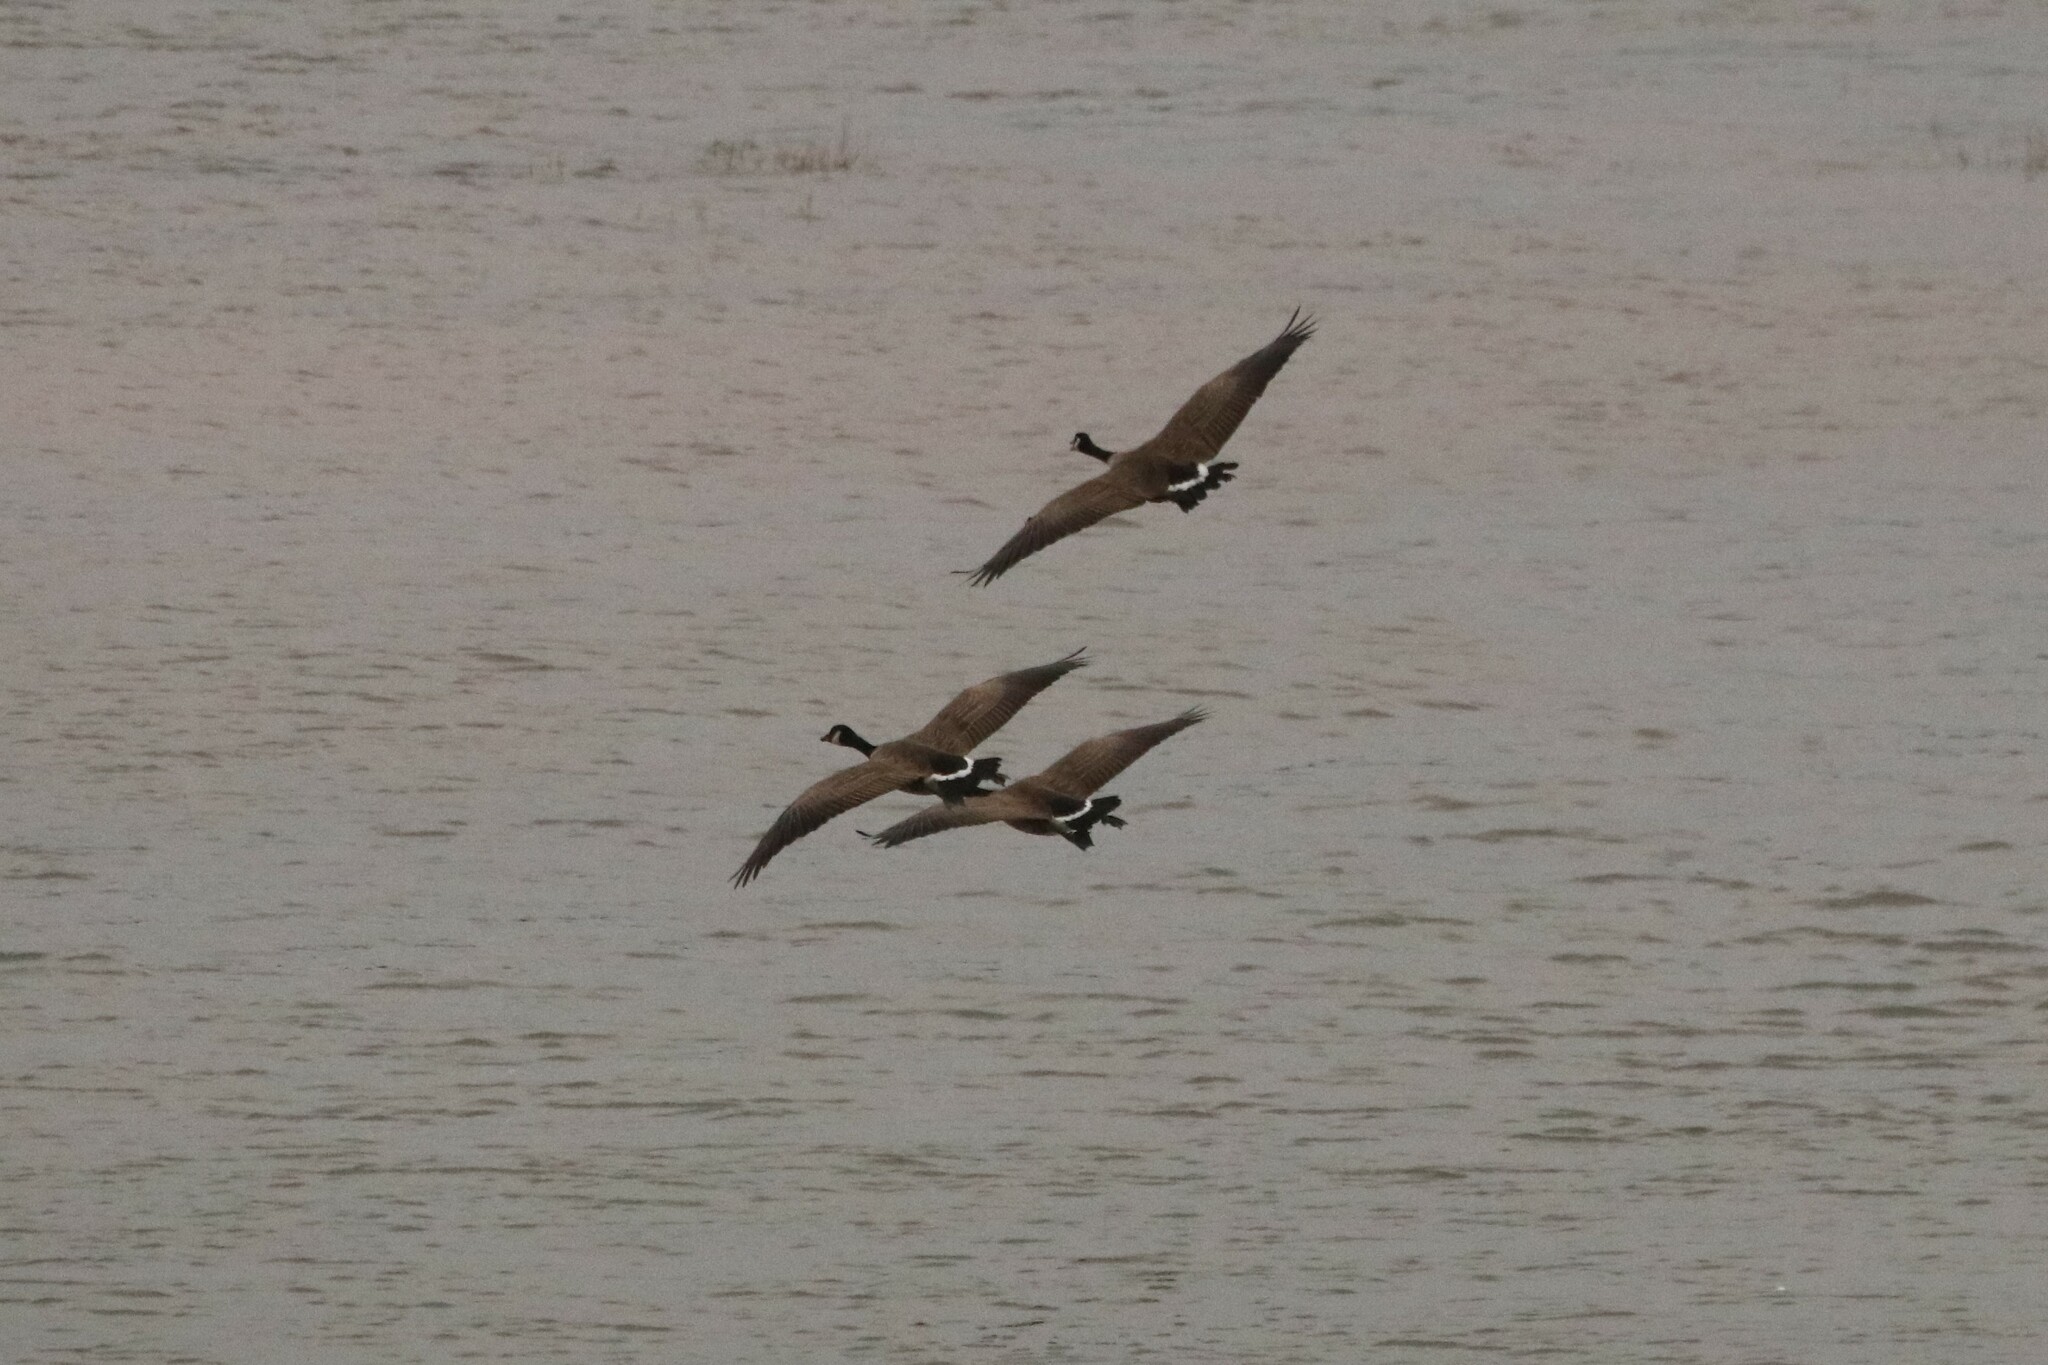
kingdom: Animalia
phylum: Chordata
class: Aves
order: Anseriformes
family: Anatidae
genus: Branta
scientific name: Branta canadensis
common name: Canada goose
